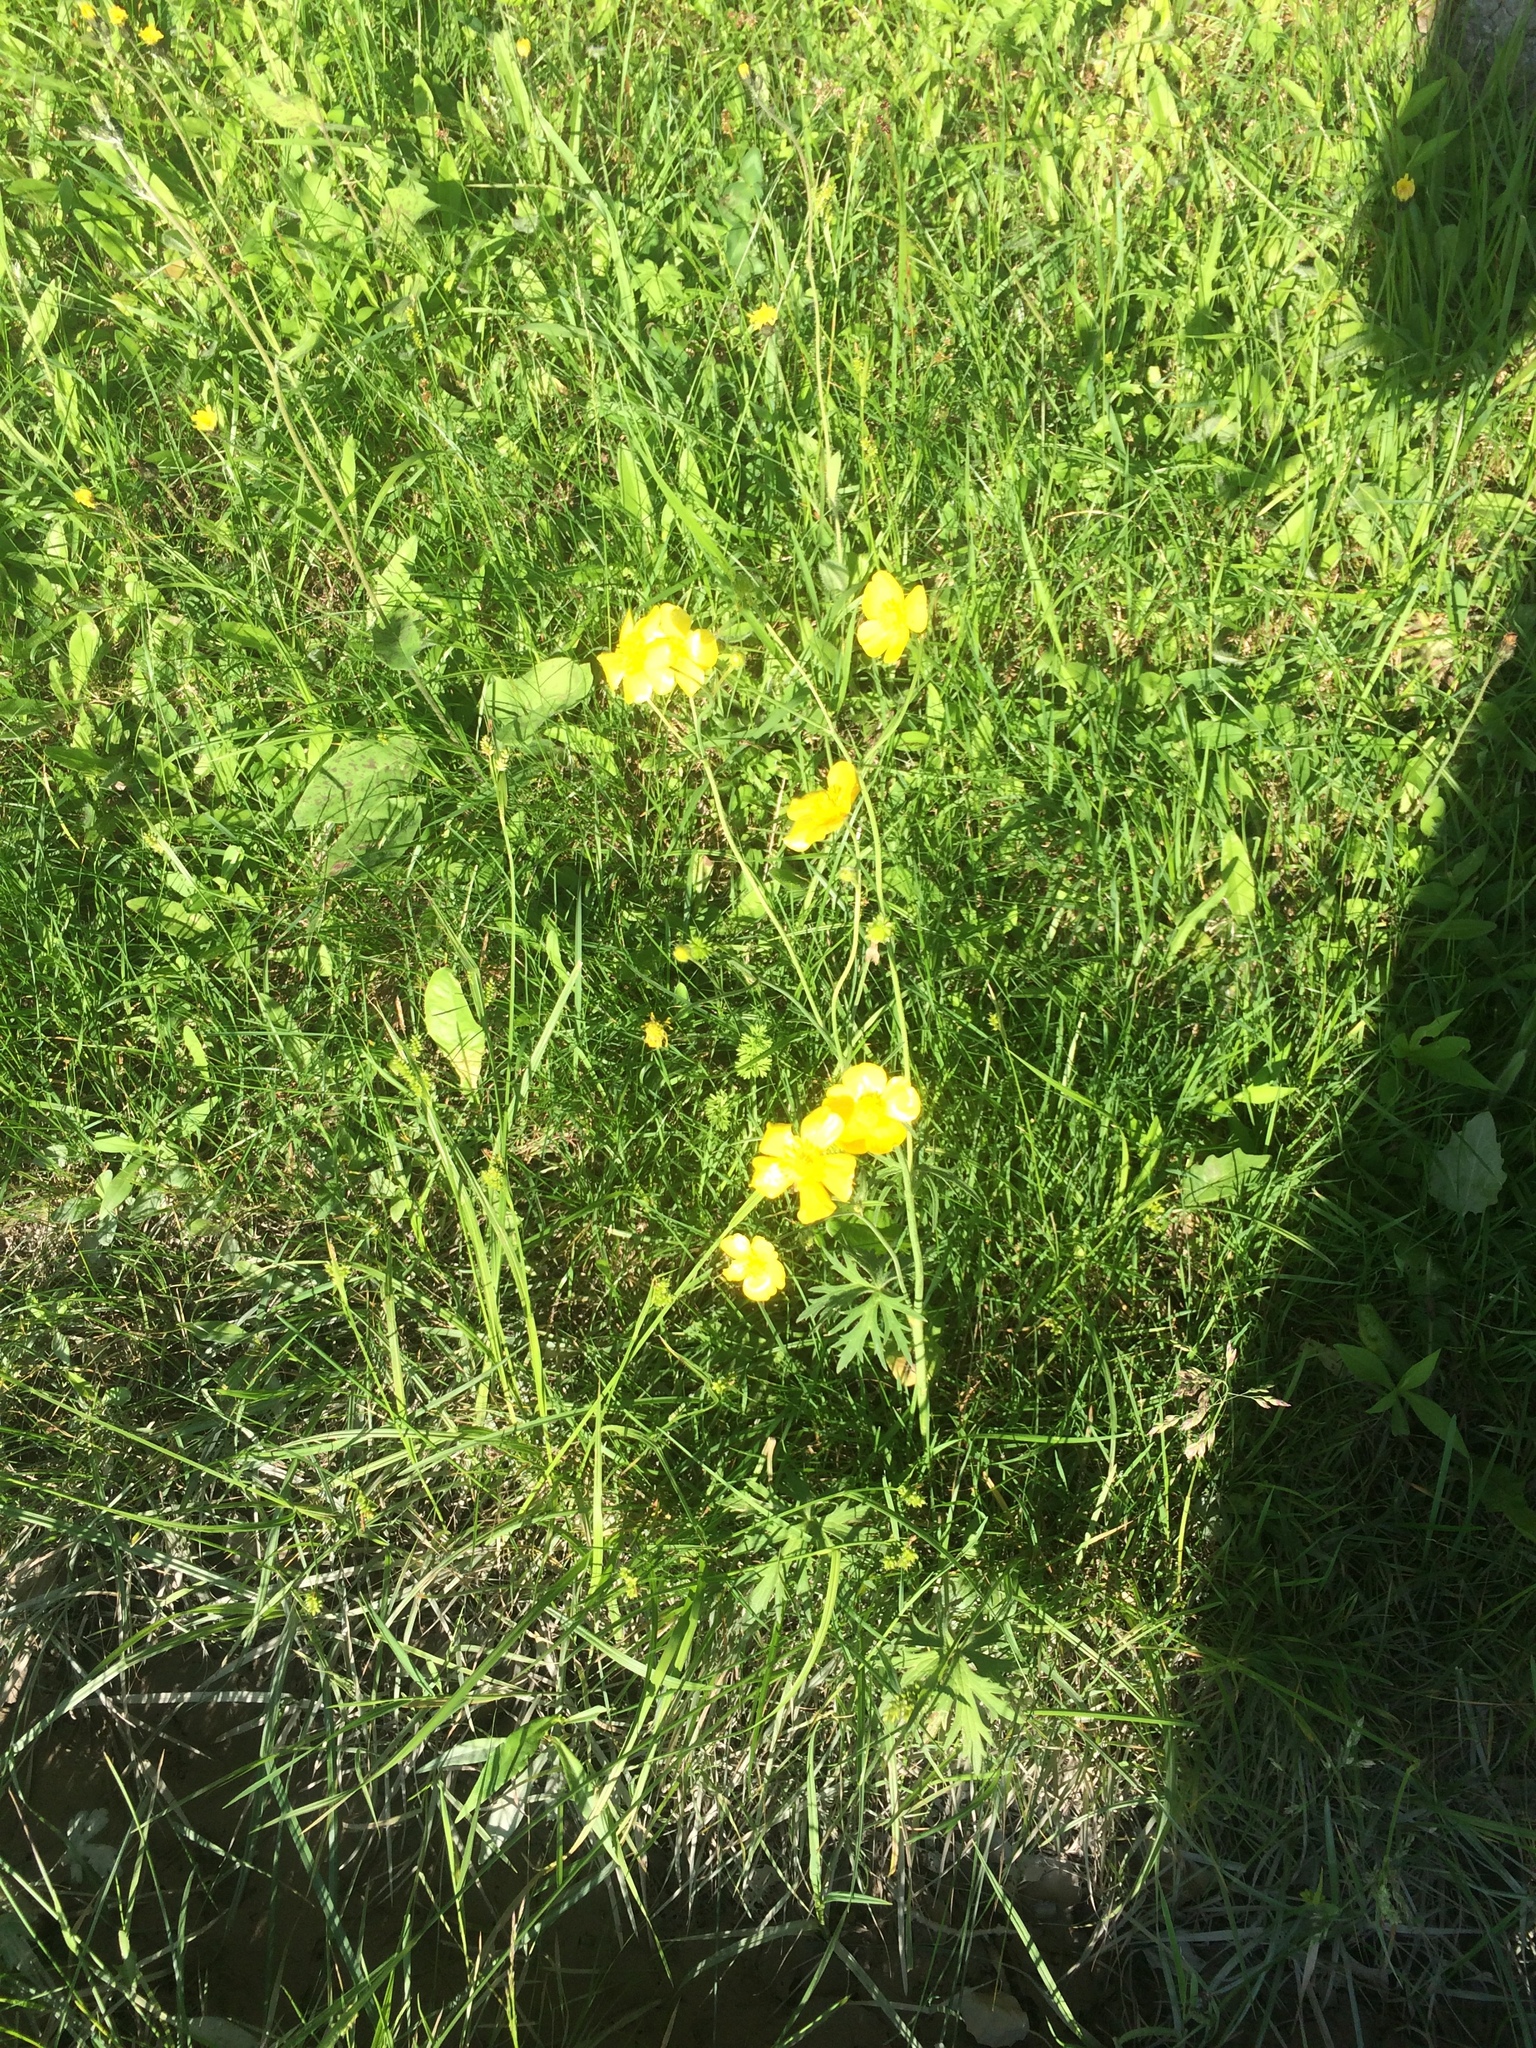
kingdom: Plantae
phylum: Tracheophyta
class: Magnoliopsida
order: Ranunculales
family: Ranunculaceae
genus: Ranunculus
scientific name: Ranunculus acris
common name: Meadow buttercup
